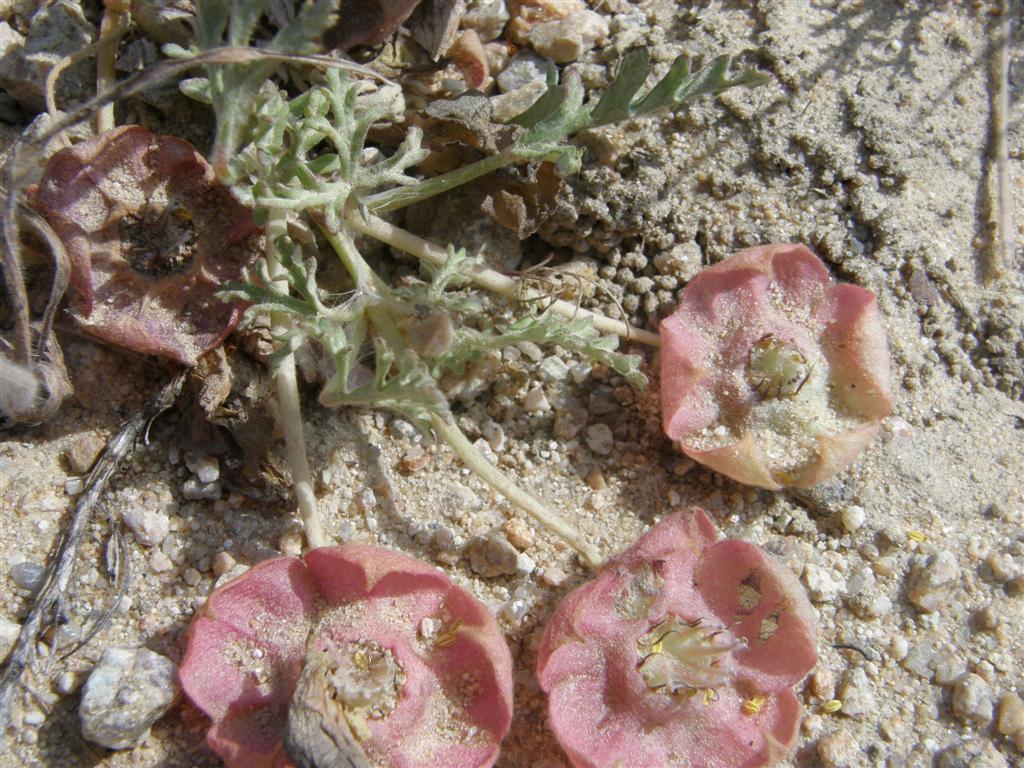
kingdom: Plantae
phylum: Tracheophyta
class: Magnoliopsida
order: Malvales
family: Neuradaceae
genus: Grielum
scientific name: Grielum humifusum
